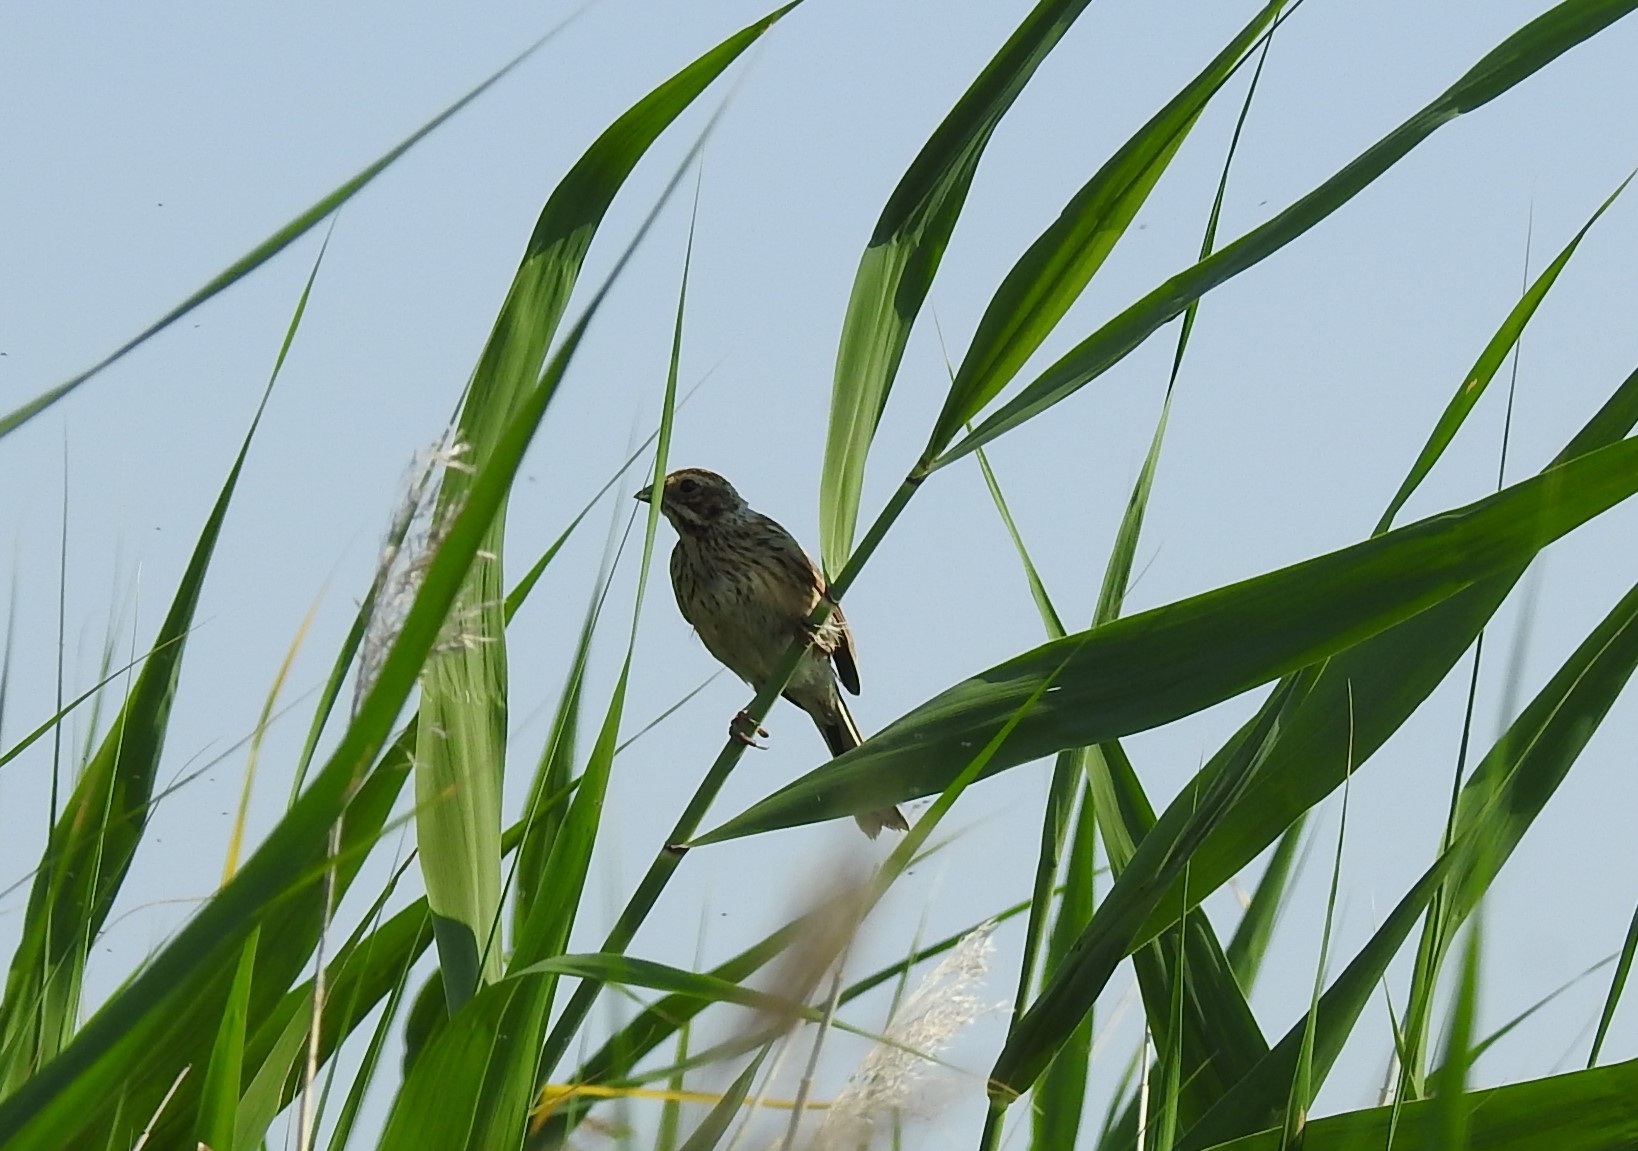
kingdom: Animalia
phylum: Chordata
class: Aves
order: Passeriformes
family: Emberizidae
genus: Emberiza
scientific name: Emberiza schoeniclus
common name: Reed bunting
